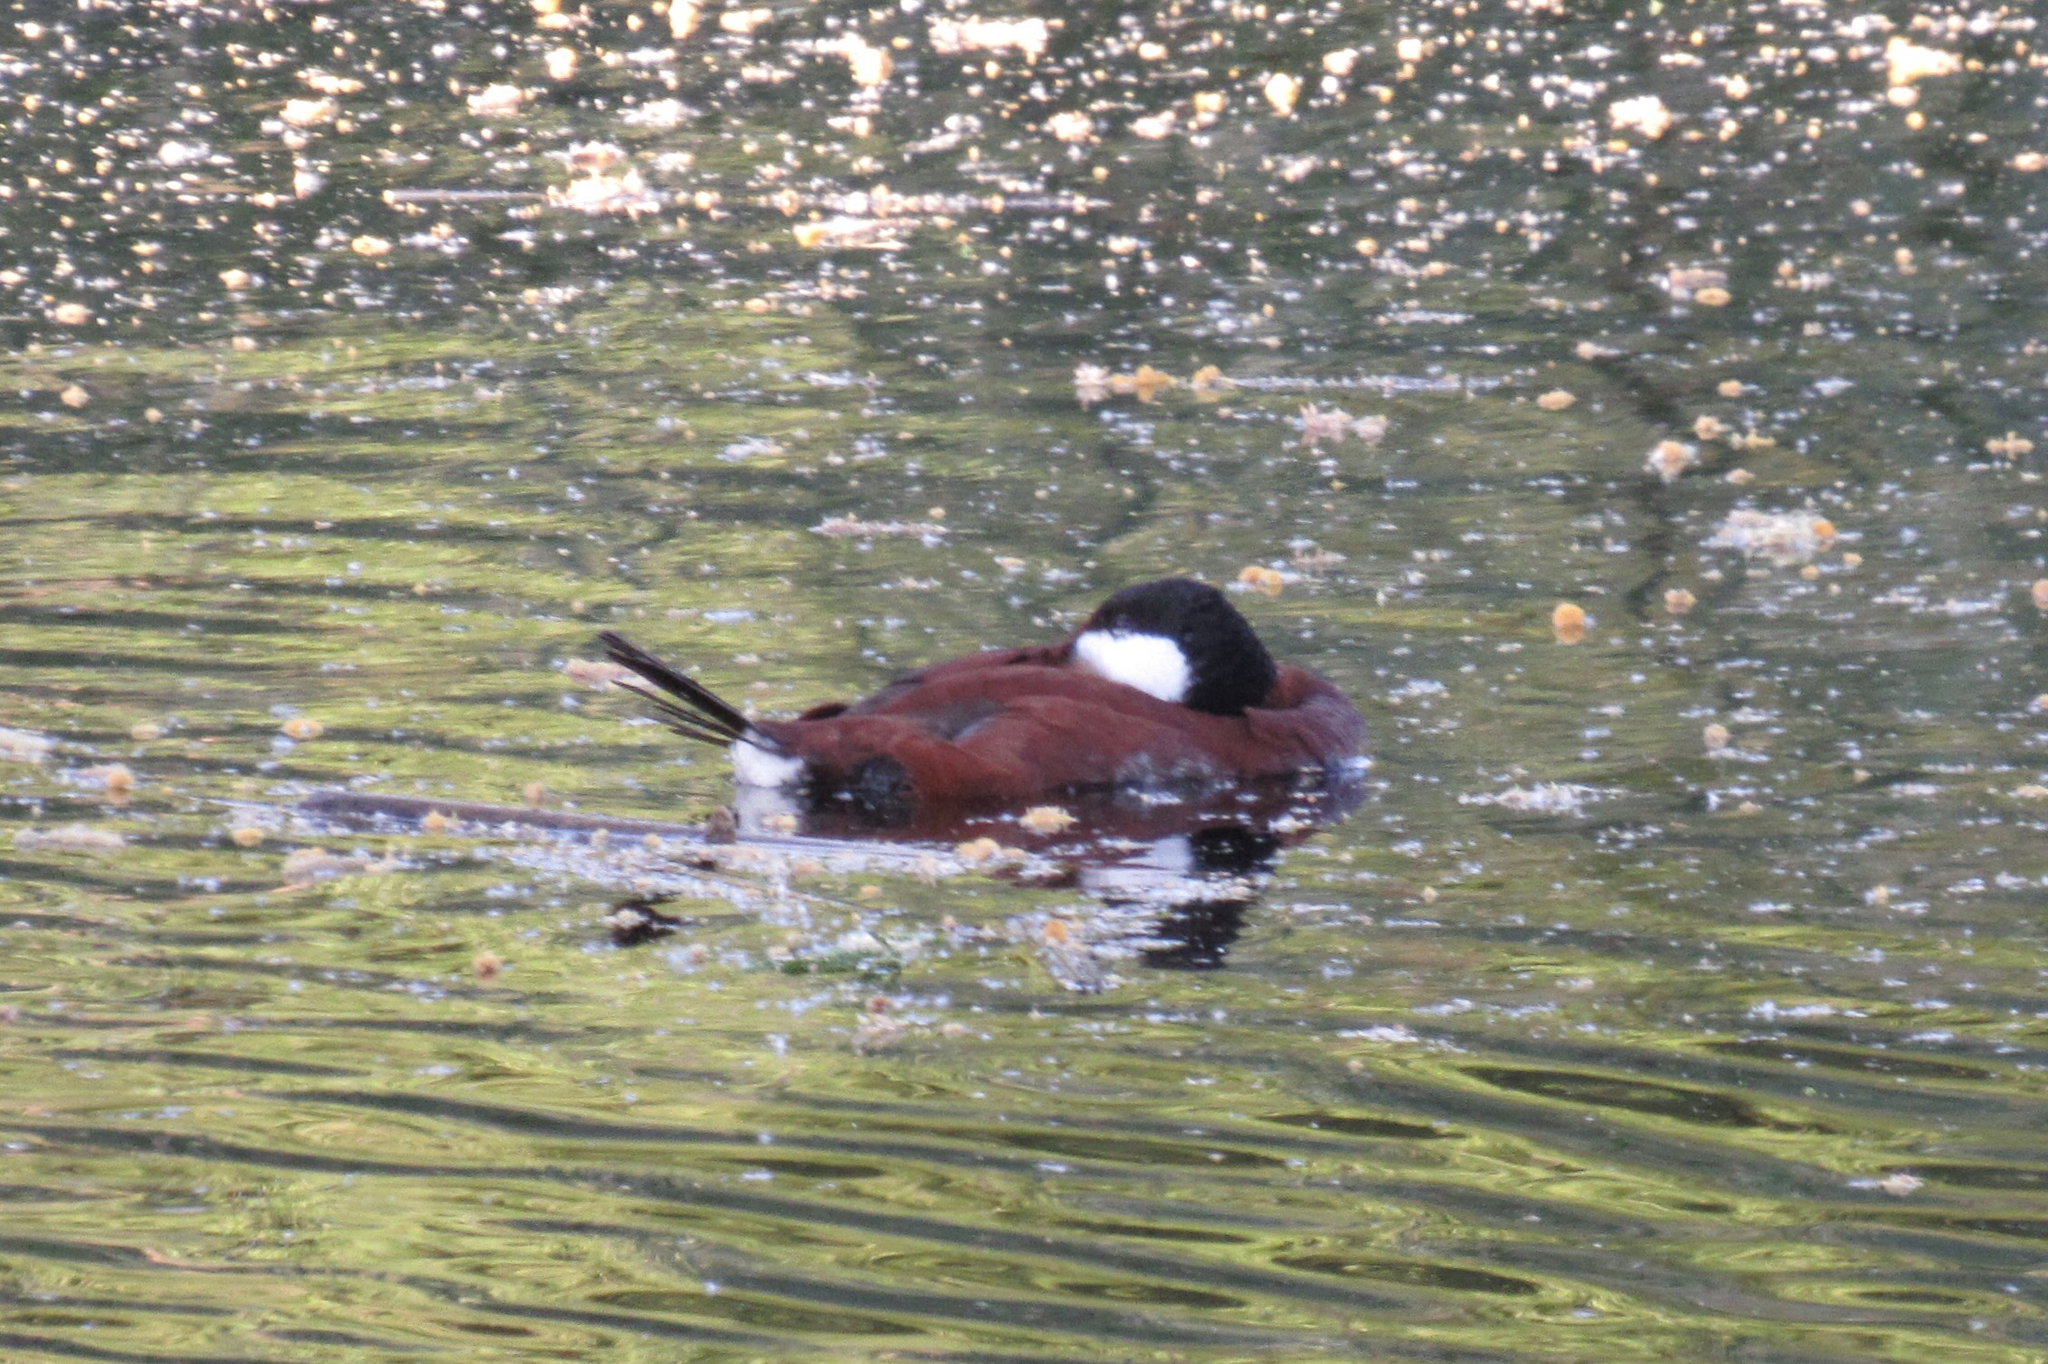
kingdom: Animalia
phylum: Chordata
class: Aves
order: Anseriformes
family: Anatidae
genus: Oxyura
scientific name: Oxyura jamaicensis
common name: Ruddy duck
